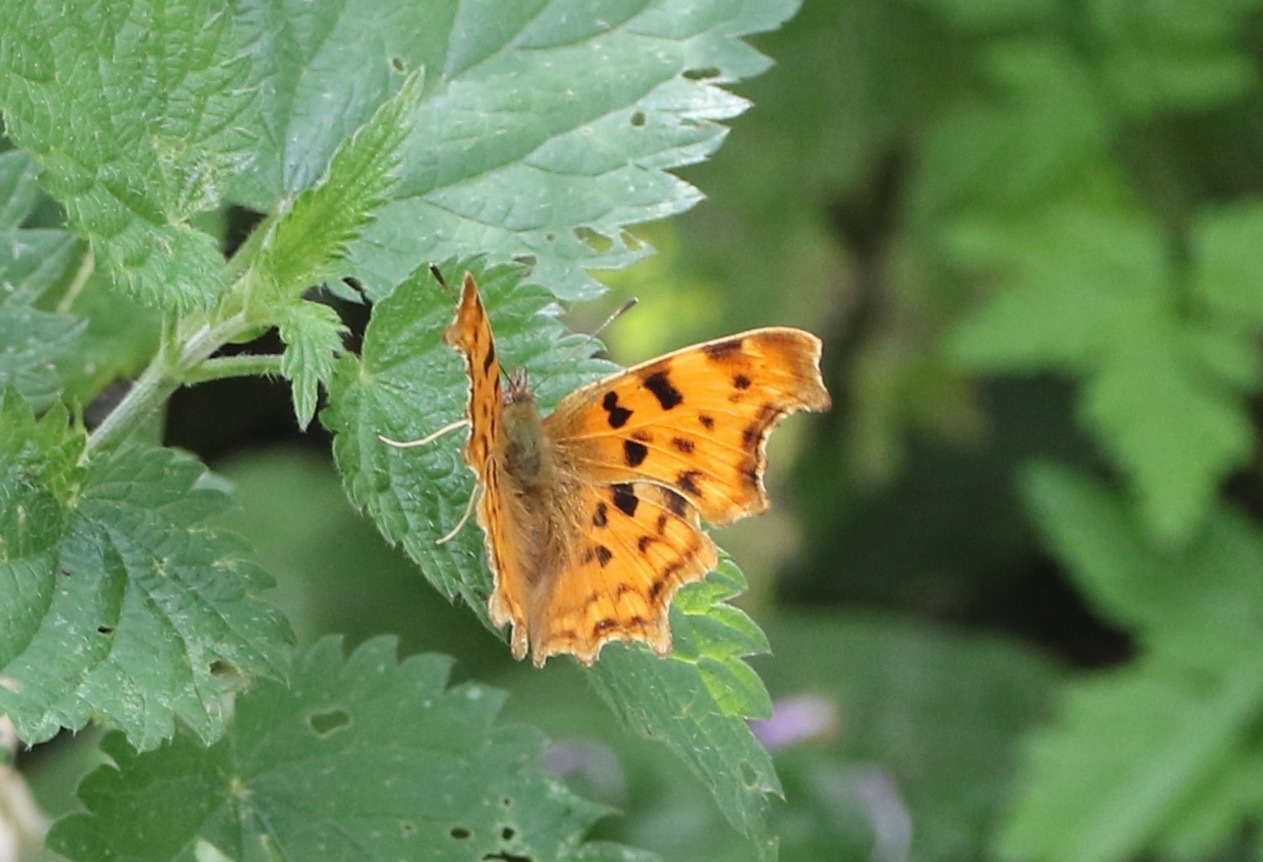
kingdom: Animalia
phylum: Arthropoda
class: Insecta
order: Lepidoptera
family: Nymphalidae
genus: Polygonia
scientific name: Polygonia c-album
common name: Comma
